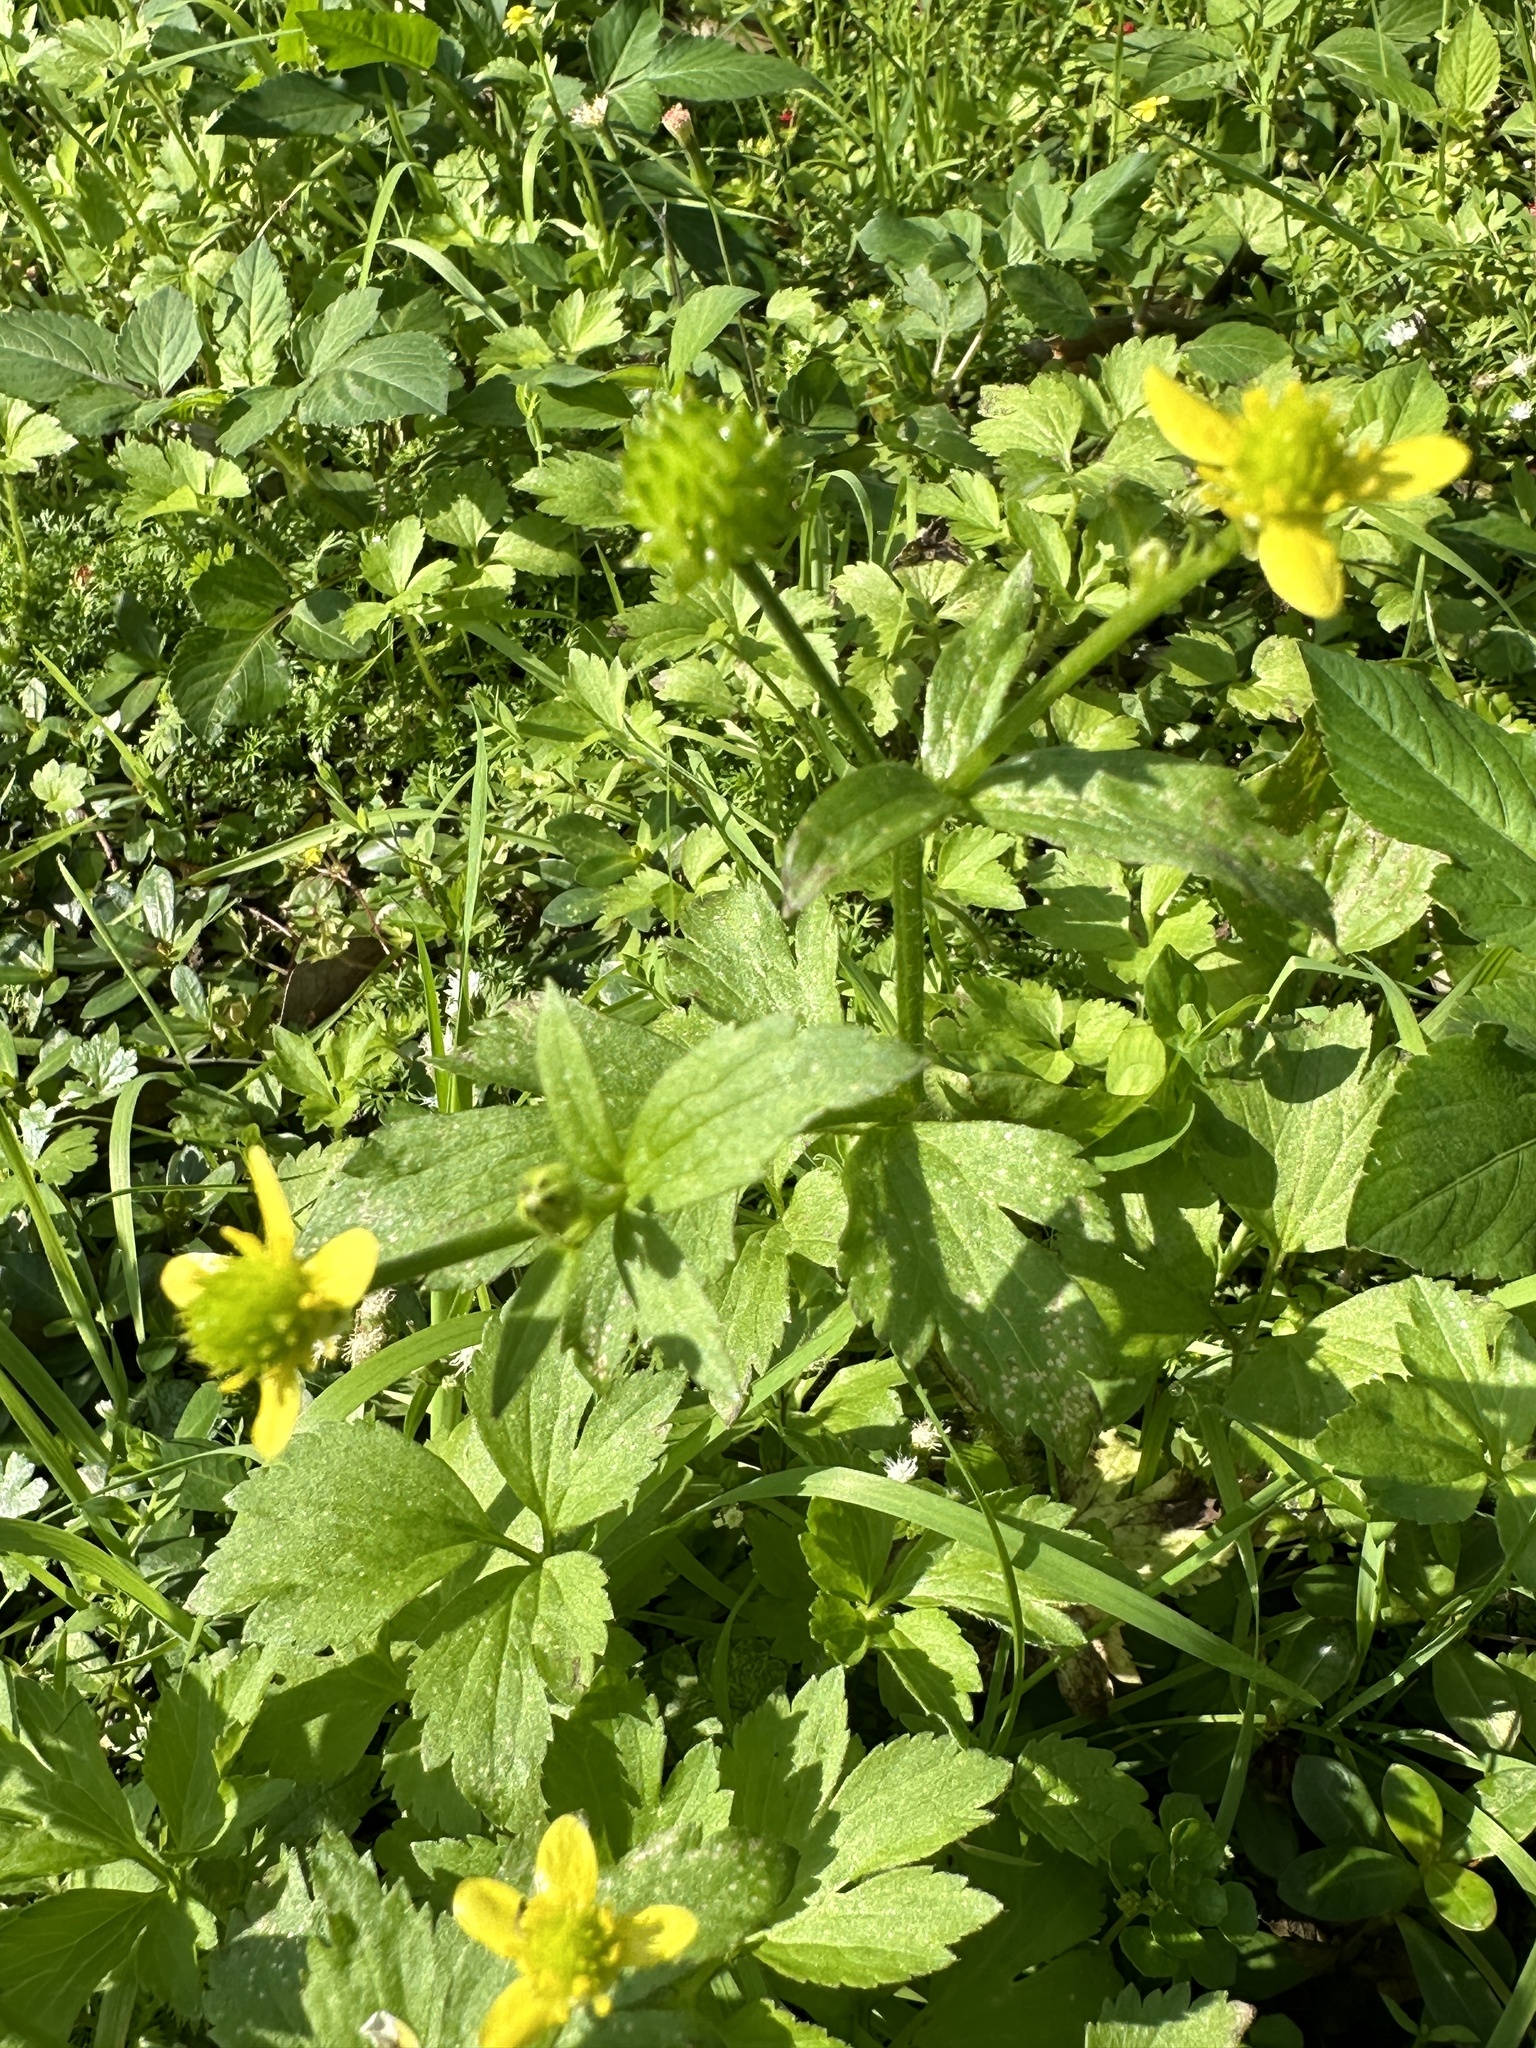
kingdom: Plantae
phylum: Tracheophyta
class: Magnoliopsida
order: Ranunculales
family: Ranunculaceae
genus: Ranunculus
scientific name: Ranunculus cantoniensis
